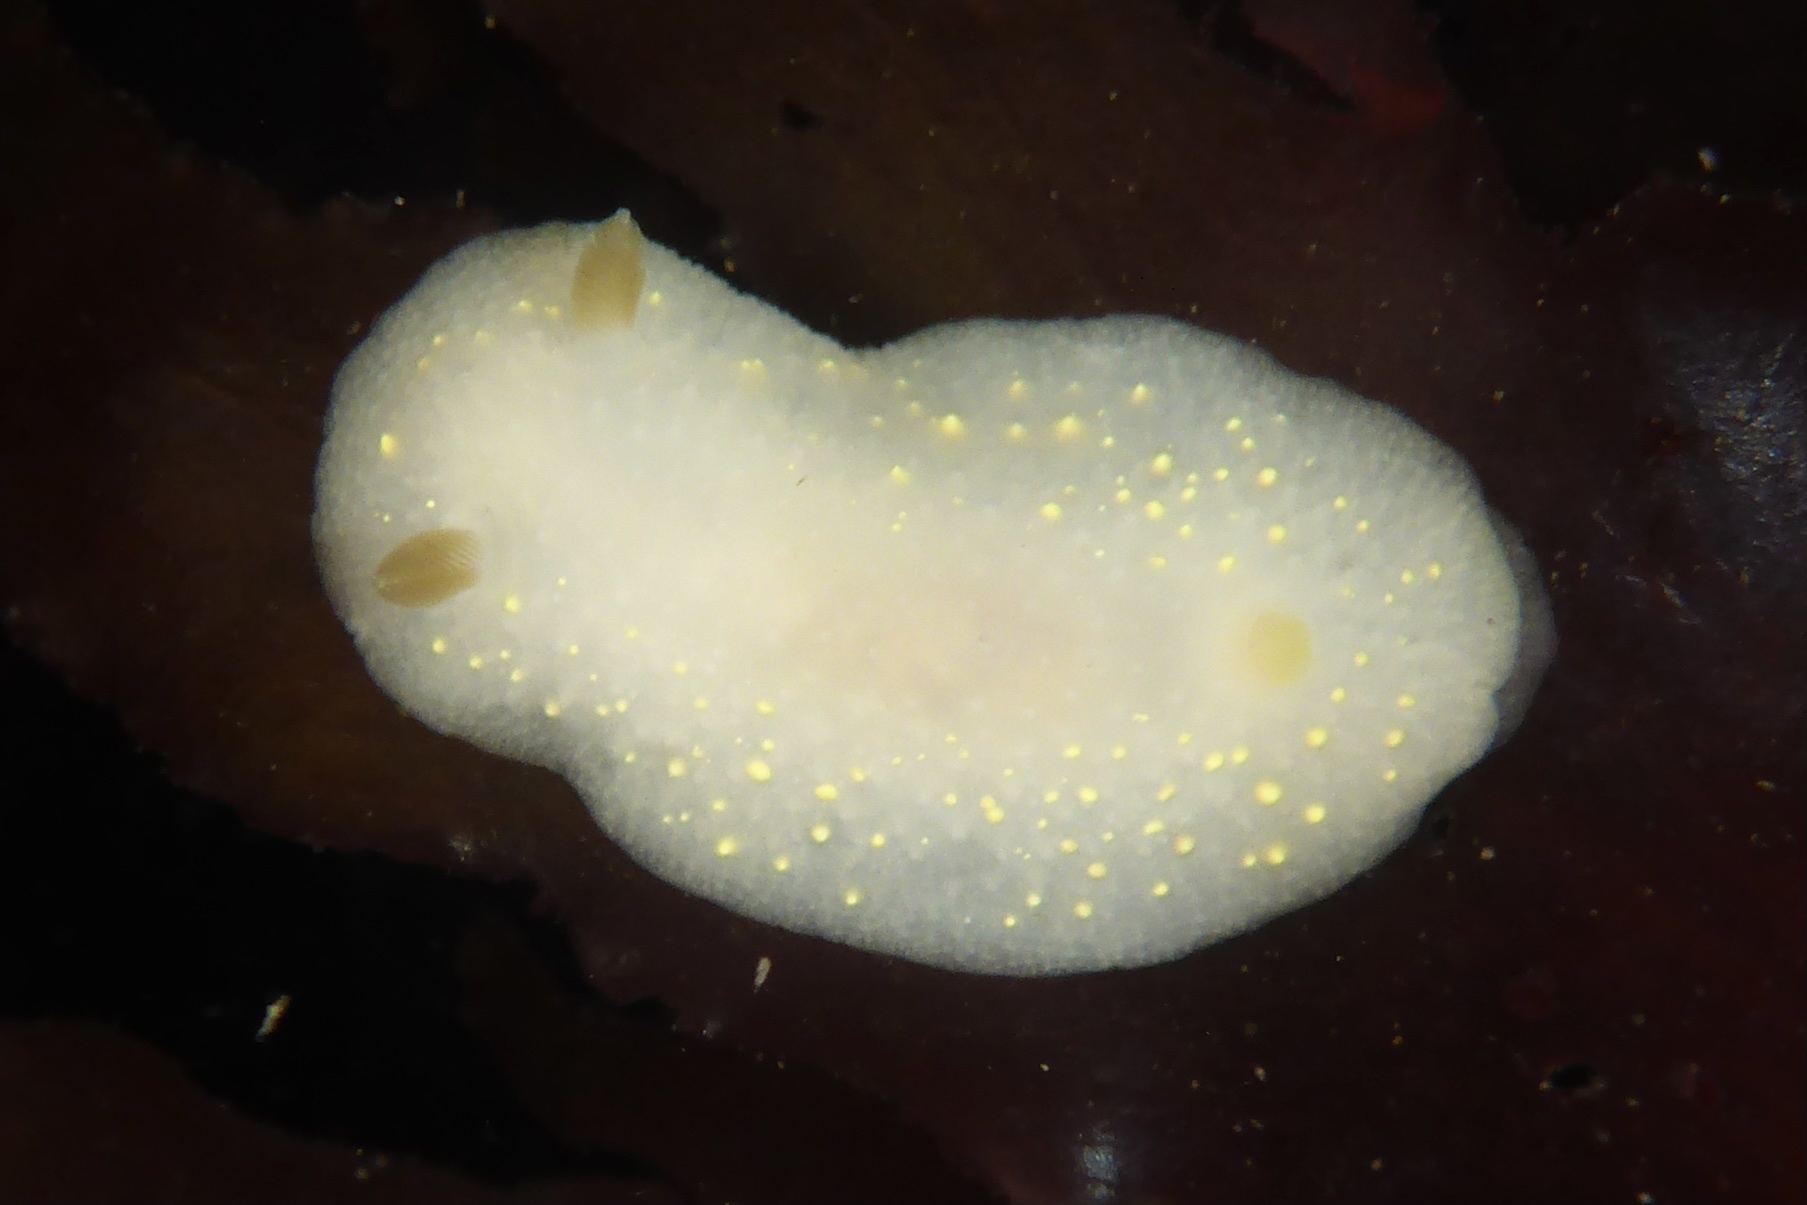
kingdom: Animalia
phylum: Mollusca
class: Gastropoda
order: Nudibranchia
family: Cadlinidae
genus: Cadlina
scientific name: Cadlina modesta
